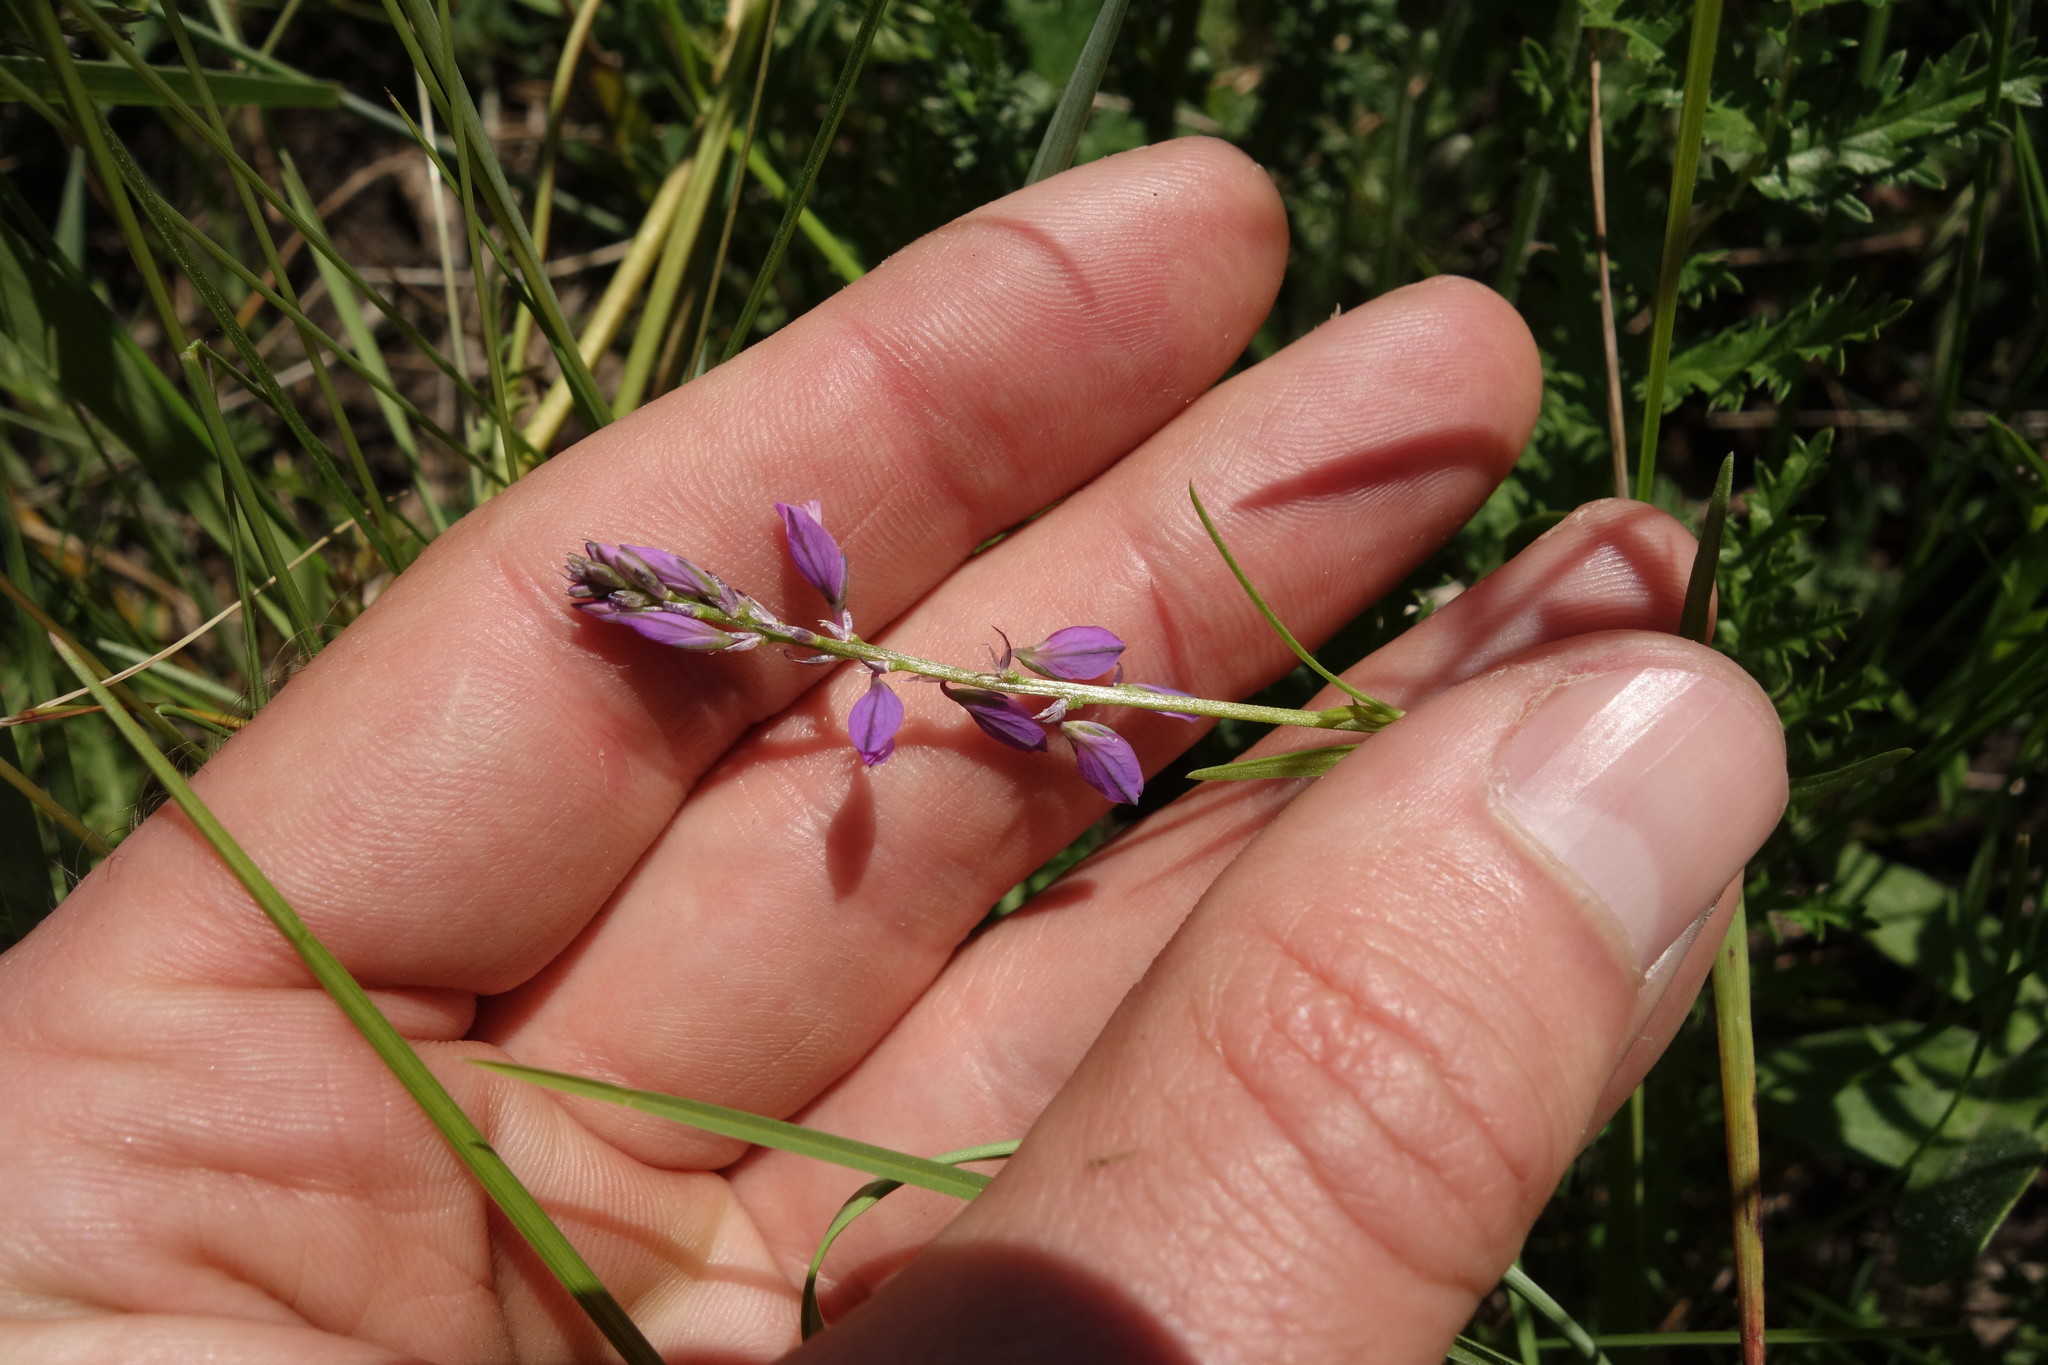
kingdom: Plantae
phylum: Tracheophyta
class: Magnoliopsida
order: Fabales
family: Polygalaceae
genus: Polygala
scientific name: Polygala comosa
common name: Tufted milkwort
